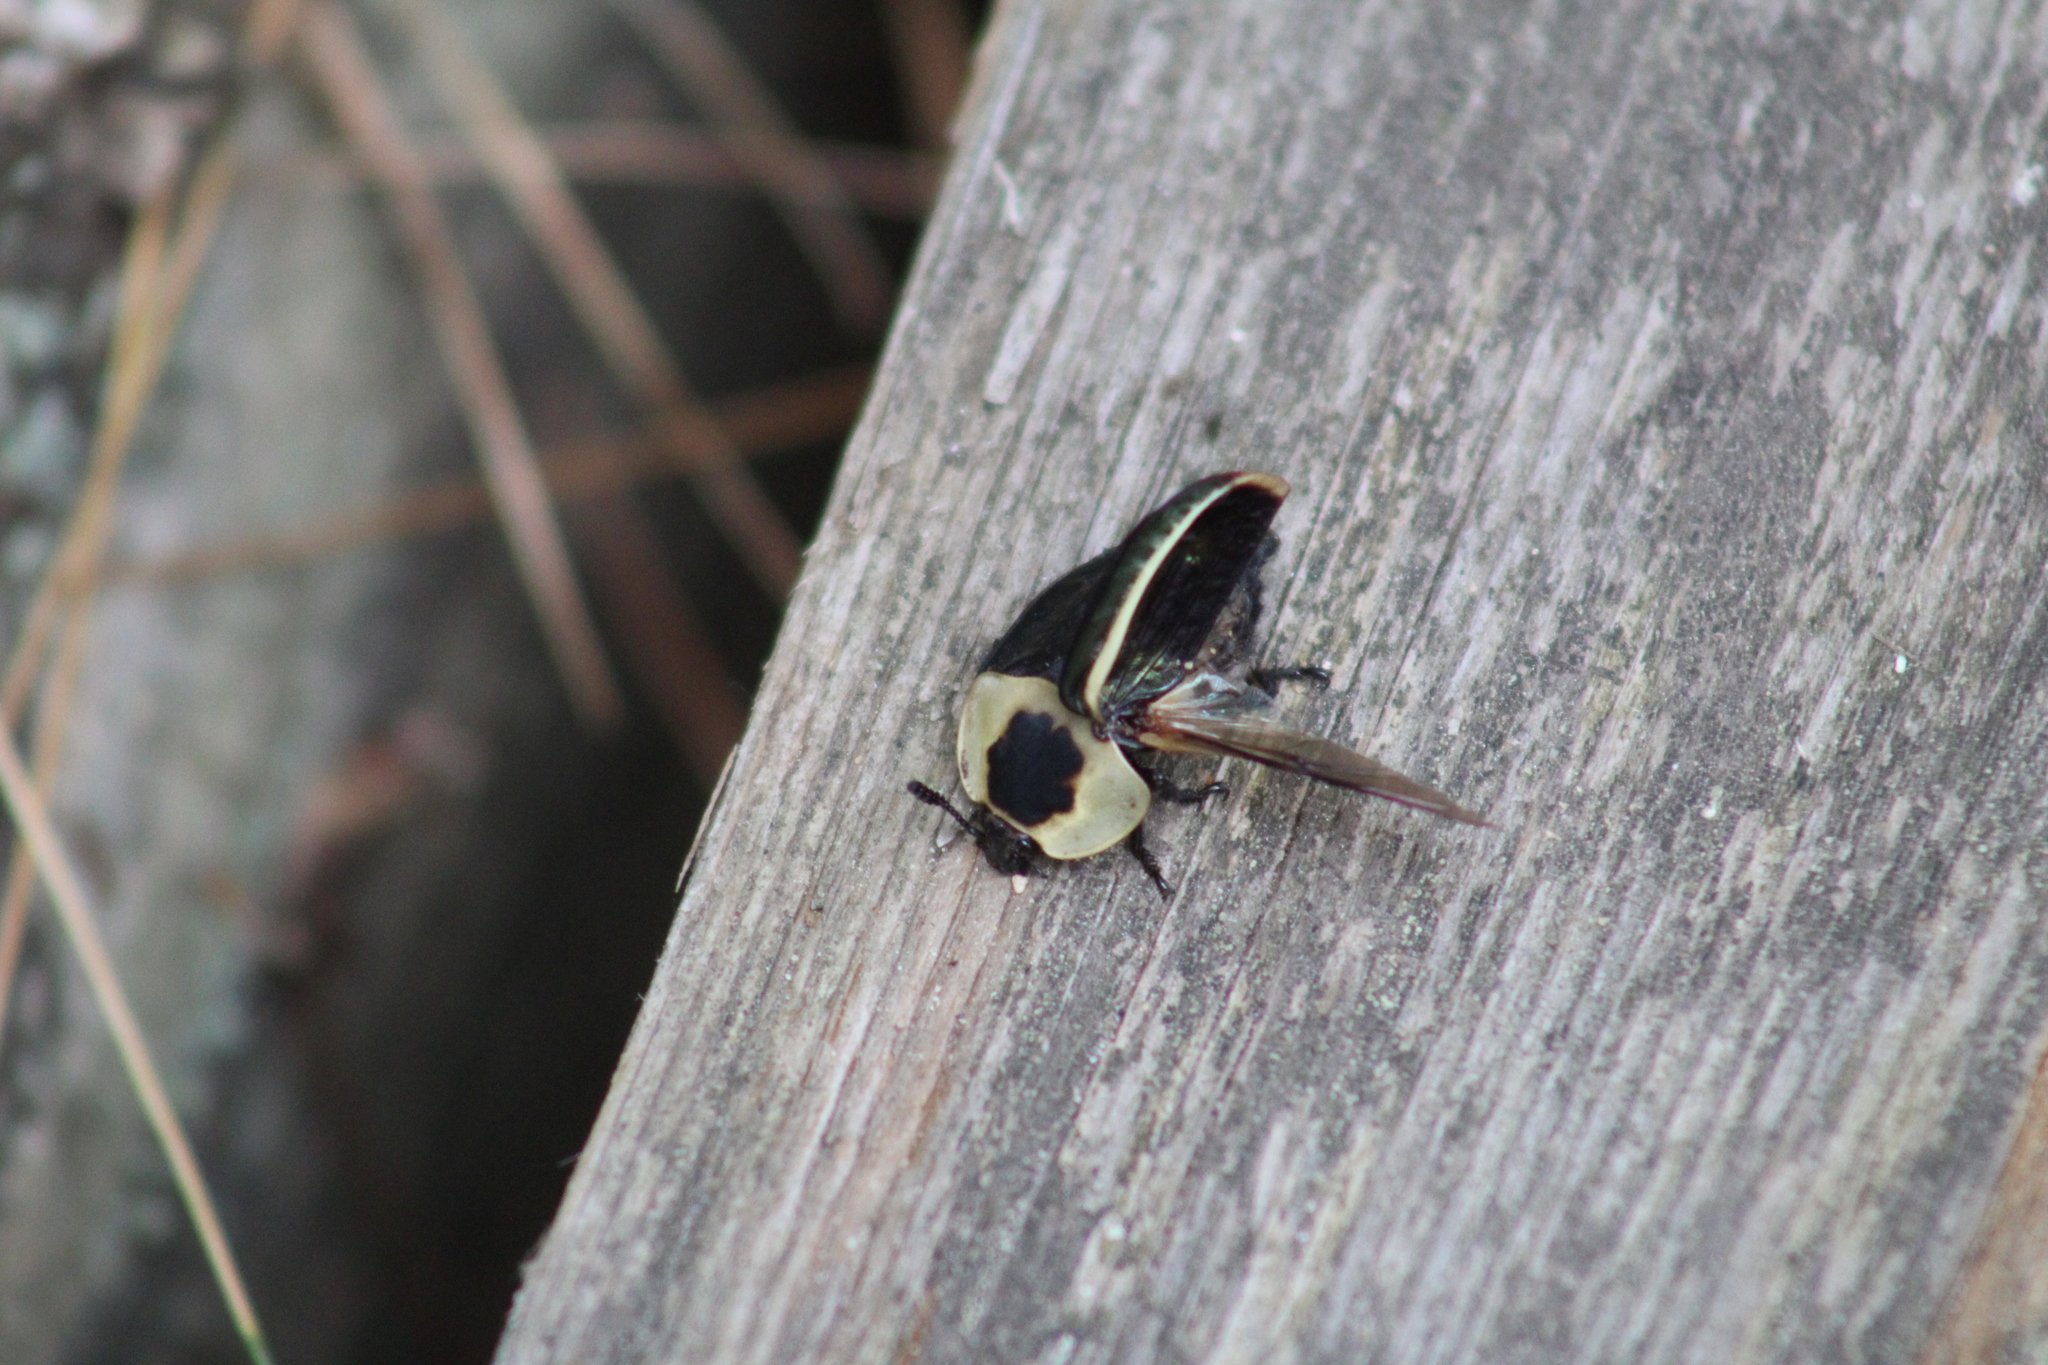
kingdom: Animalia
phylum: Arthropoda
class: Insecta
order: Coleoptera
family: Staphylinidae
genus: Necrophila
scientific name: Necrophila americana
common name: American carrion beetle
